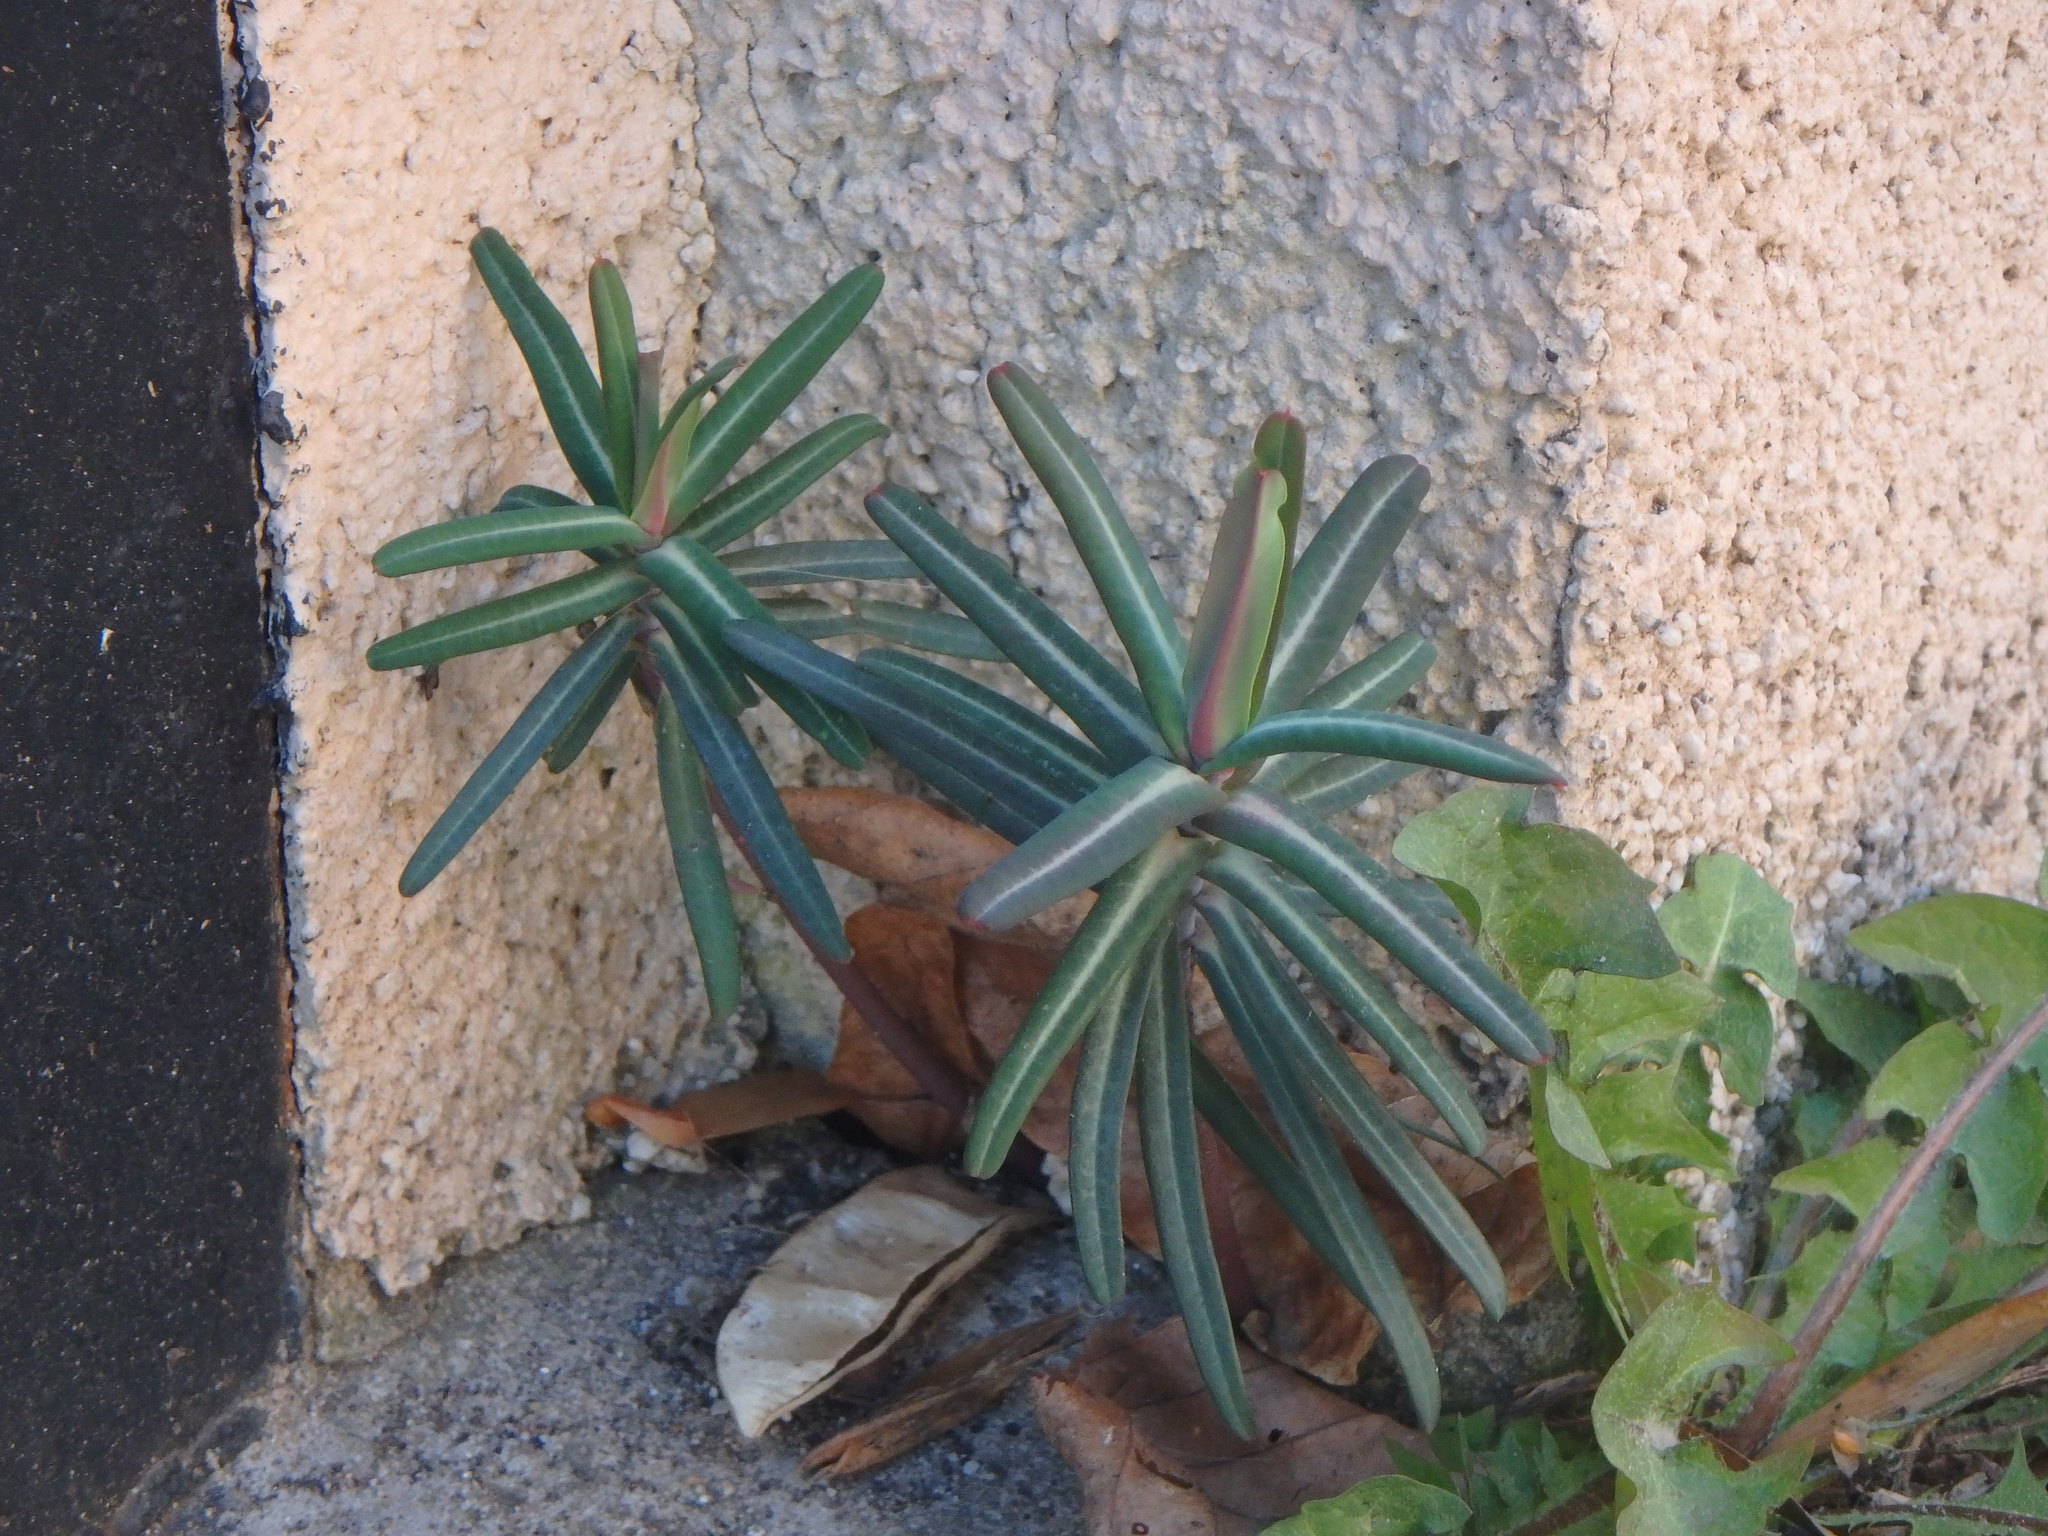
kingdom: Plantae
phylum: Tracheophyta
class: Magnoliopsida
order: Malpighiales
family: Euphorbiaceae
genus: Euphorbia
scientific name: Euphorbia lathyris
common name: Caper spurge
